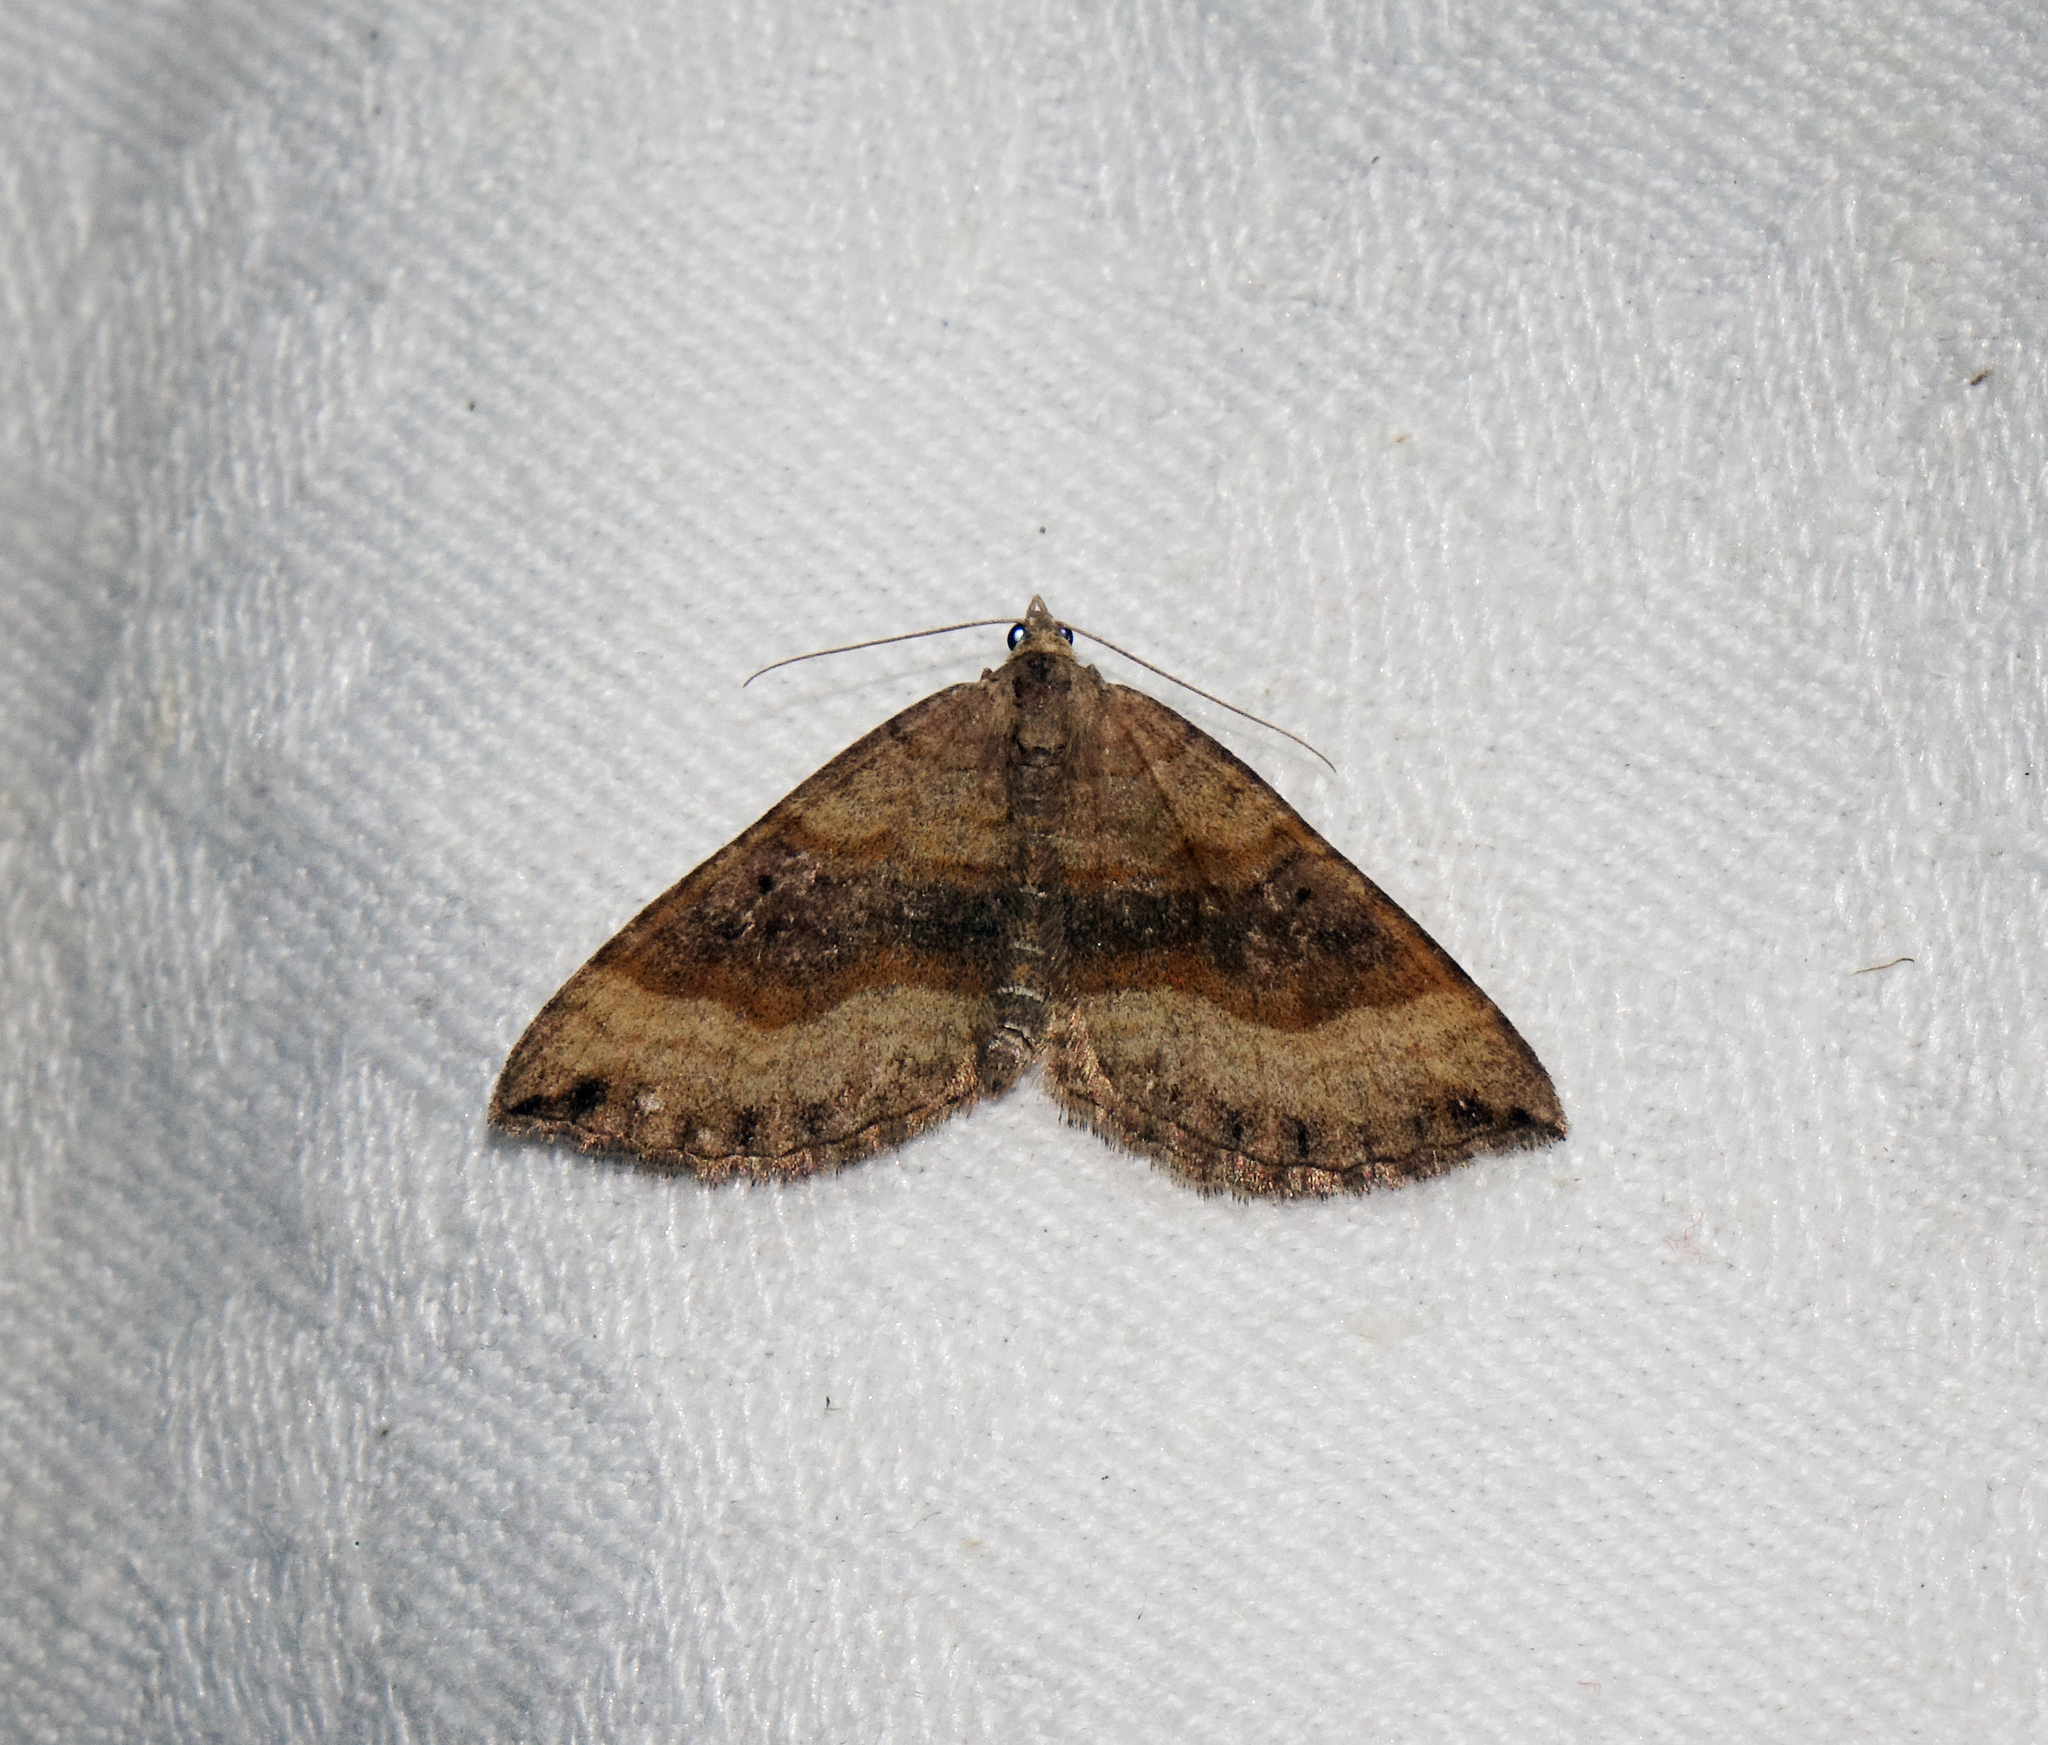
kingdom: Animalia
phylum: Arthropoda
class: Insecta
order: Lepidoptera
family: Geometridae
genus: Scotopteryx
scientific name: Scotopteryx chenopodiata
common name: Shaded broad-bar
